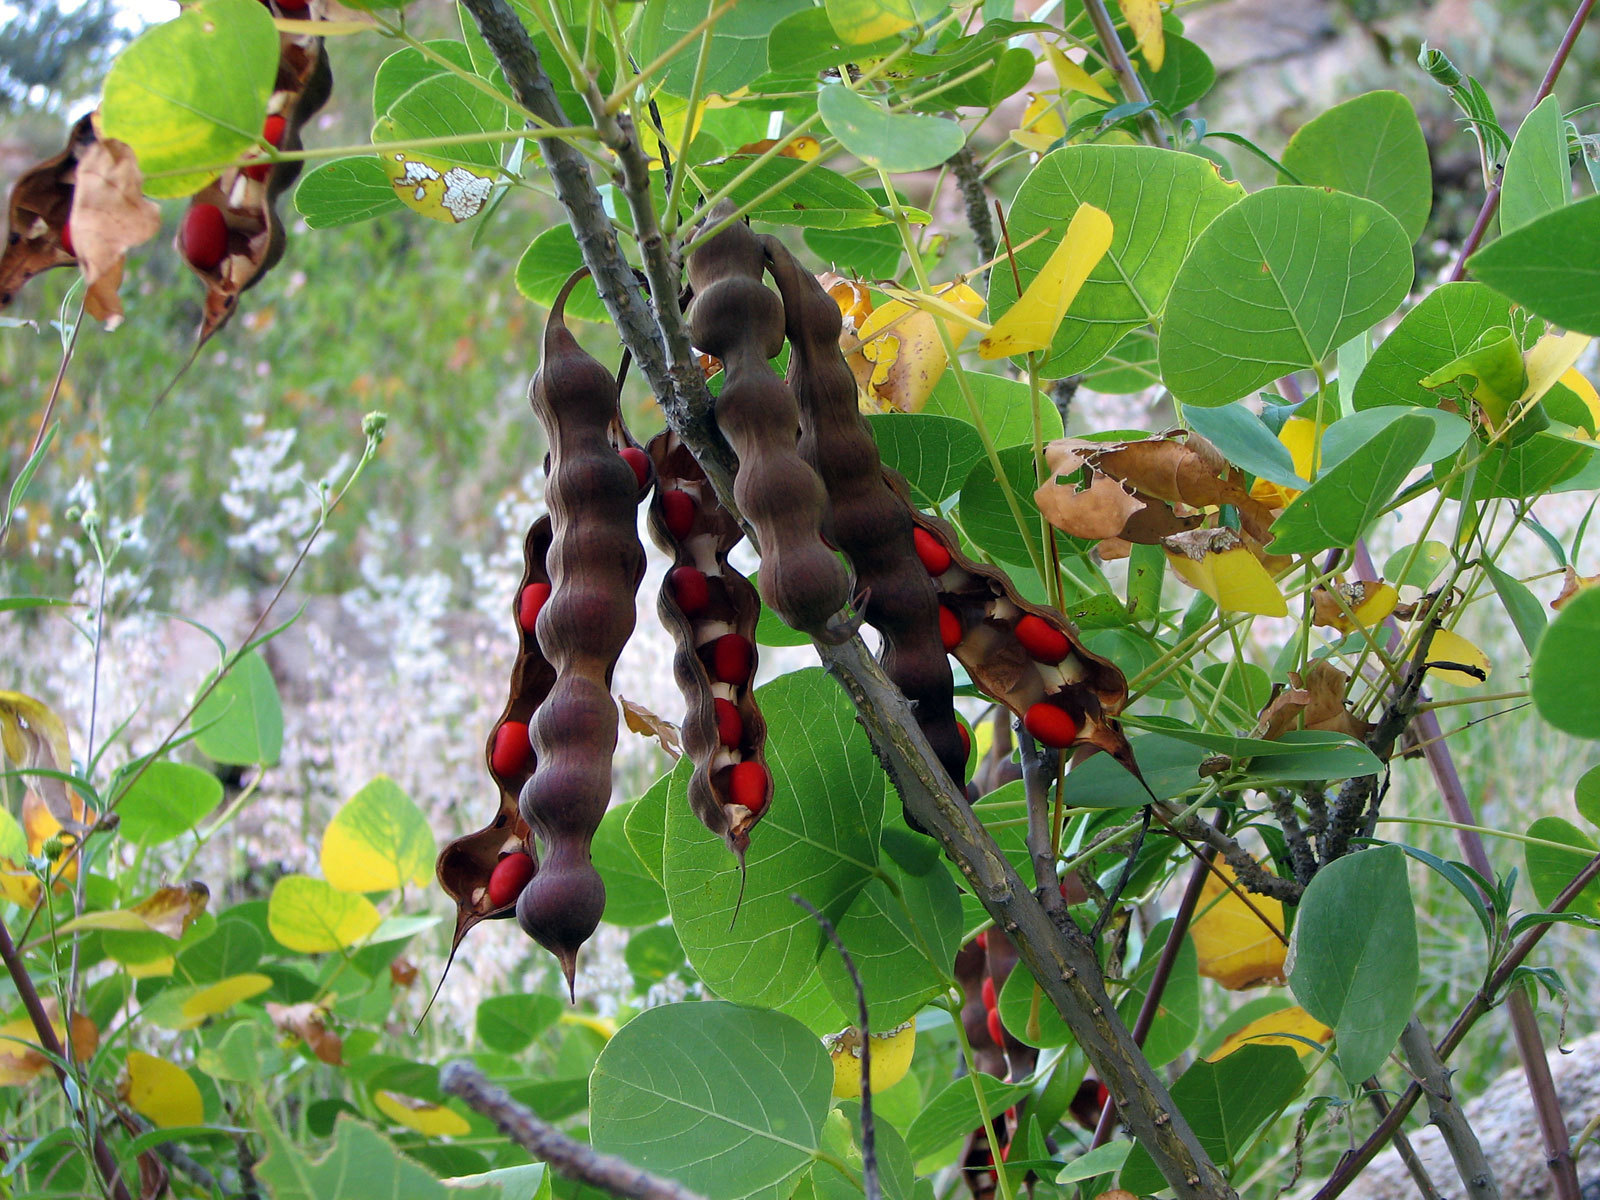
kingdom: Plantae
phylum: Tracheophyta
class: Magnoliopsida
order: Fabales
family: Fabaceae
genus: Erythrina
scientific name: Erythrina flabelliformis
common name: Chilicote
